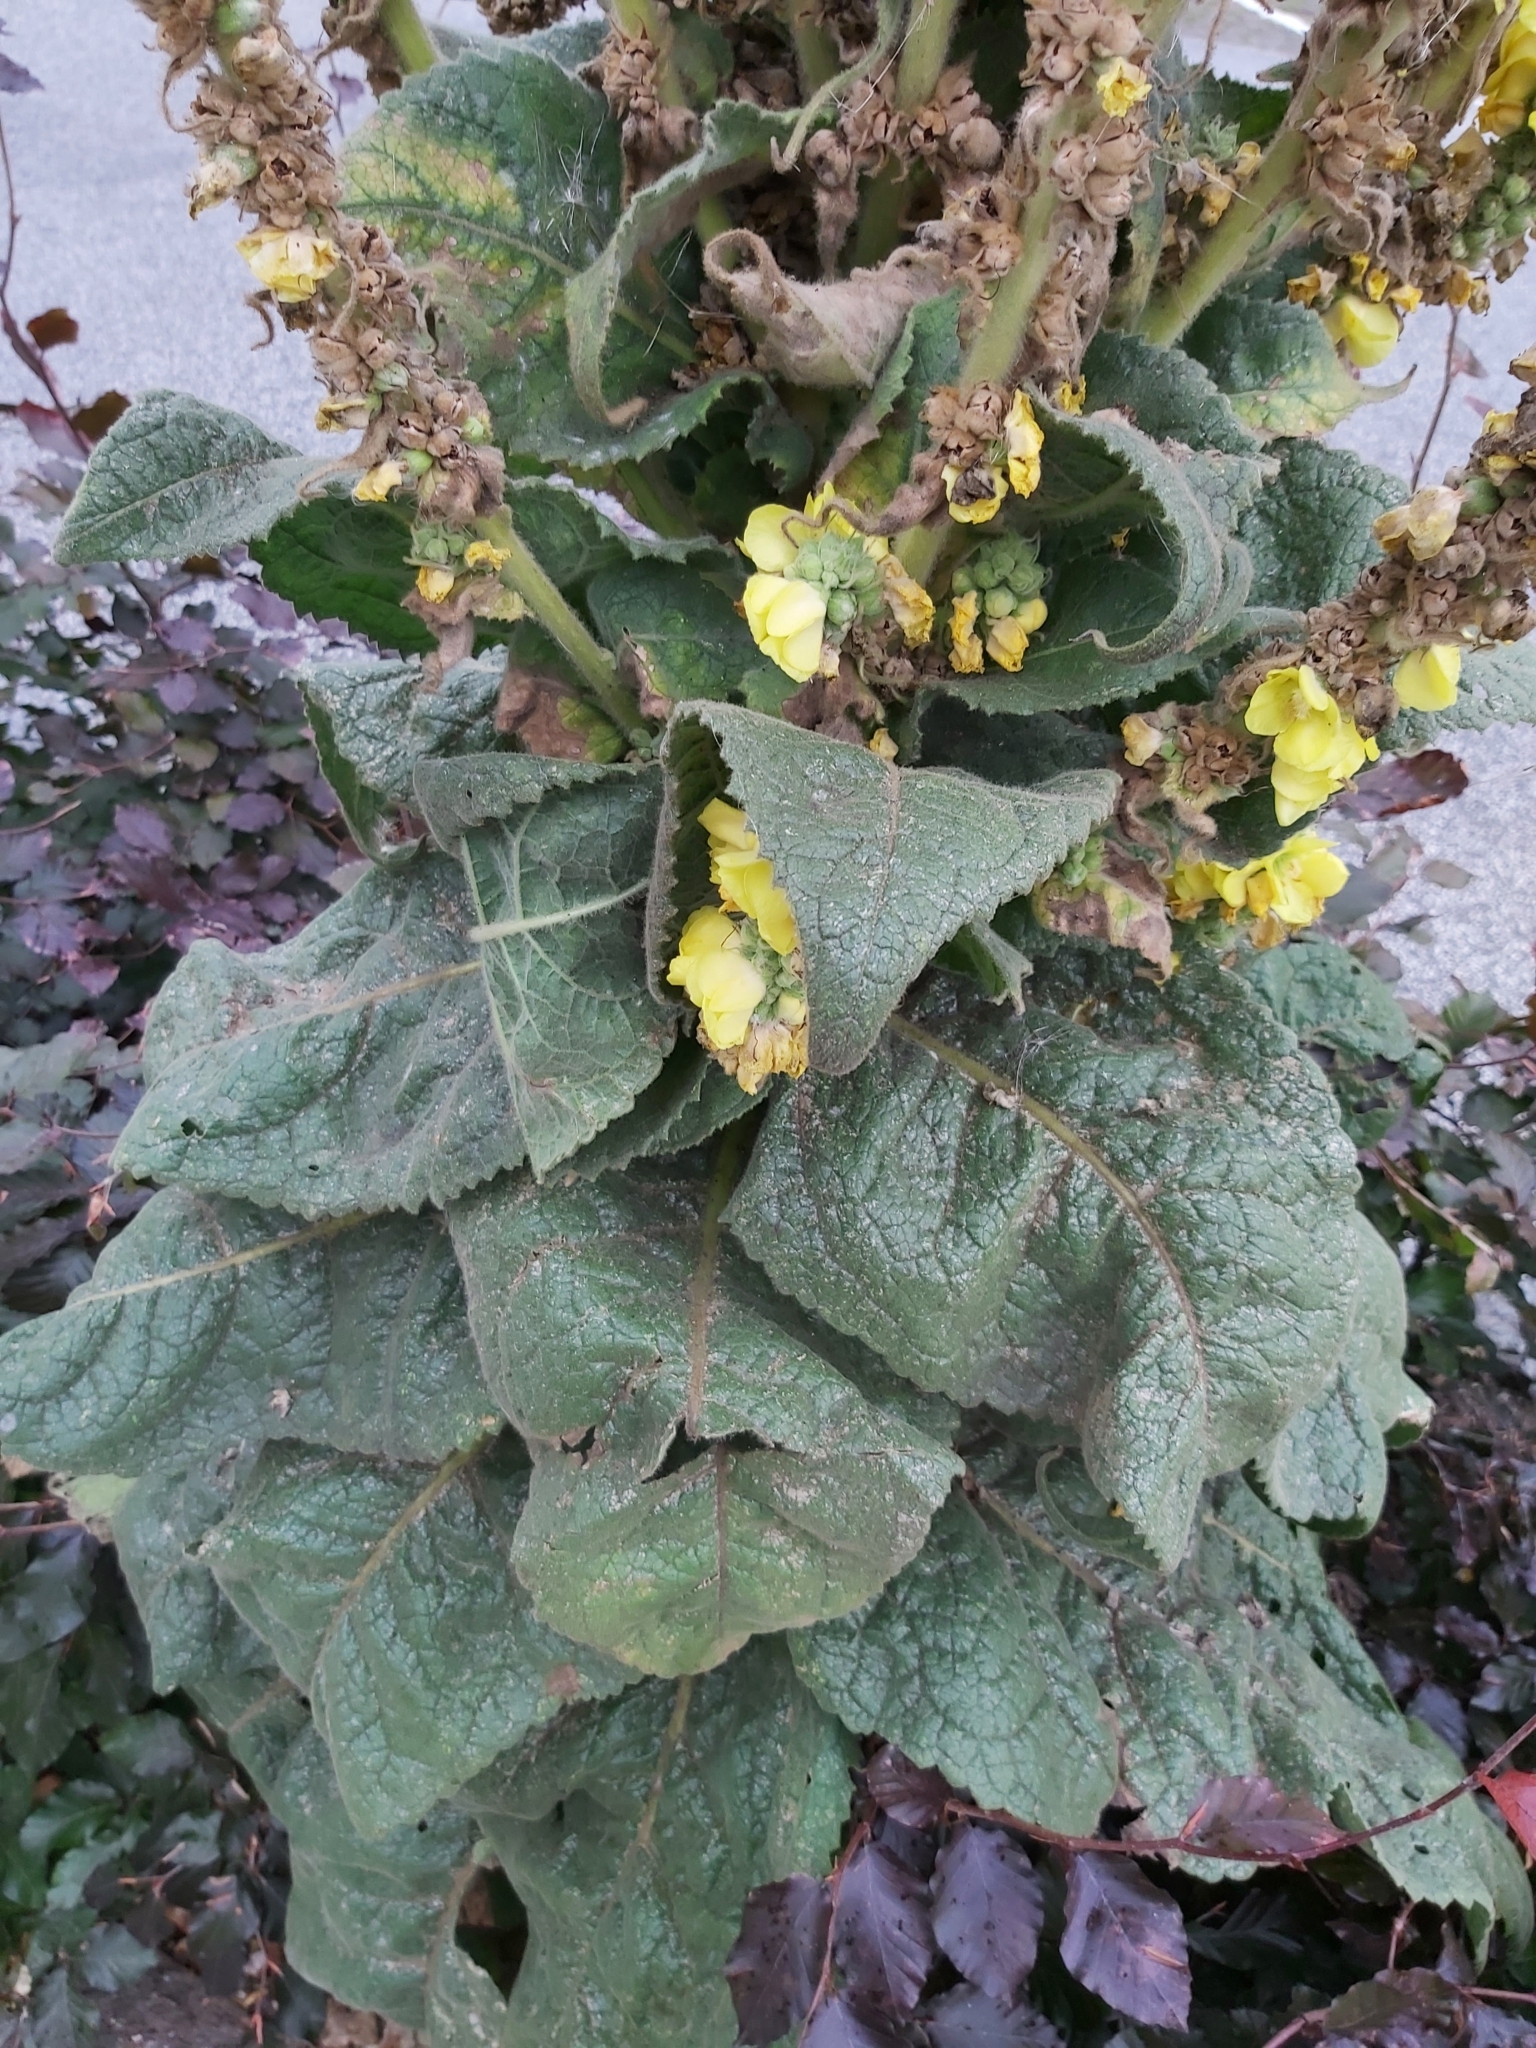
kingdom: Plantae
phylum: Tracheophyta
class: Magnoliopsida
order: Lamiales
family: Scrophulariaceae
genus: Verbascum
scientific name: Verbascum phlomoides
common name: Orange mullein
